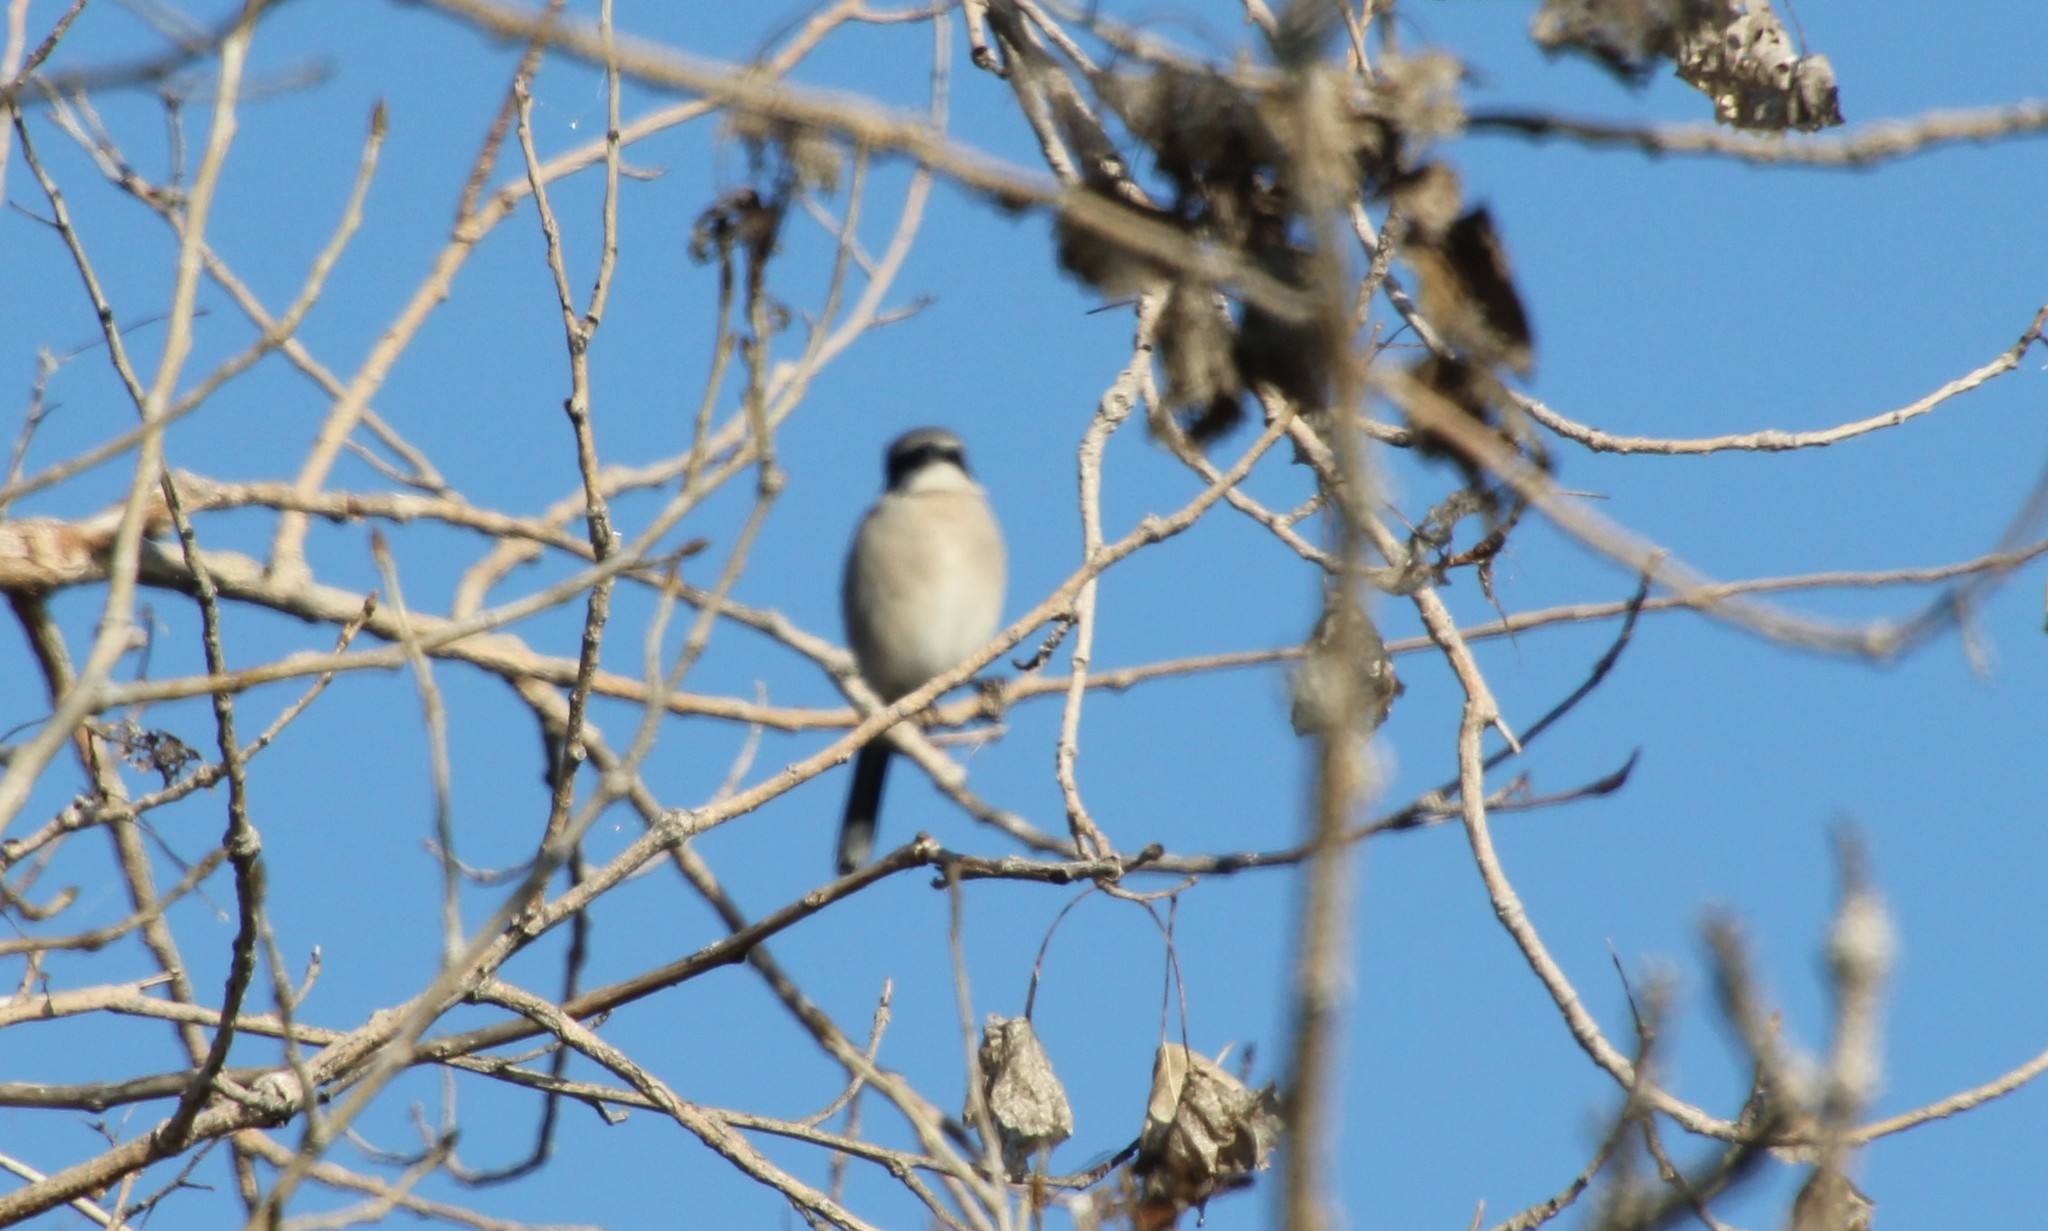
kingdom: Animalia
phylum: Chordata
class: Aves
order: Passeriformes
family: Laniidae
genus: Lanius
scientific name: Lanius ludovicianus
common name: Loggerhead shrike
